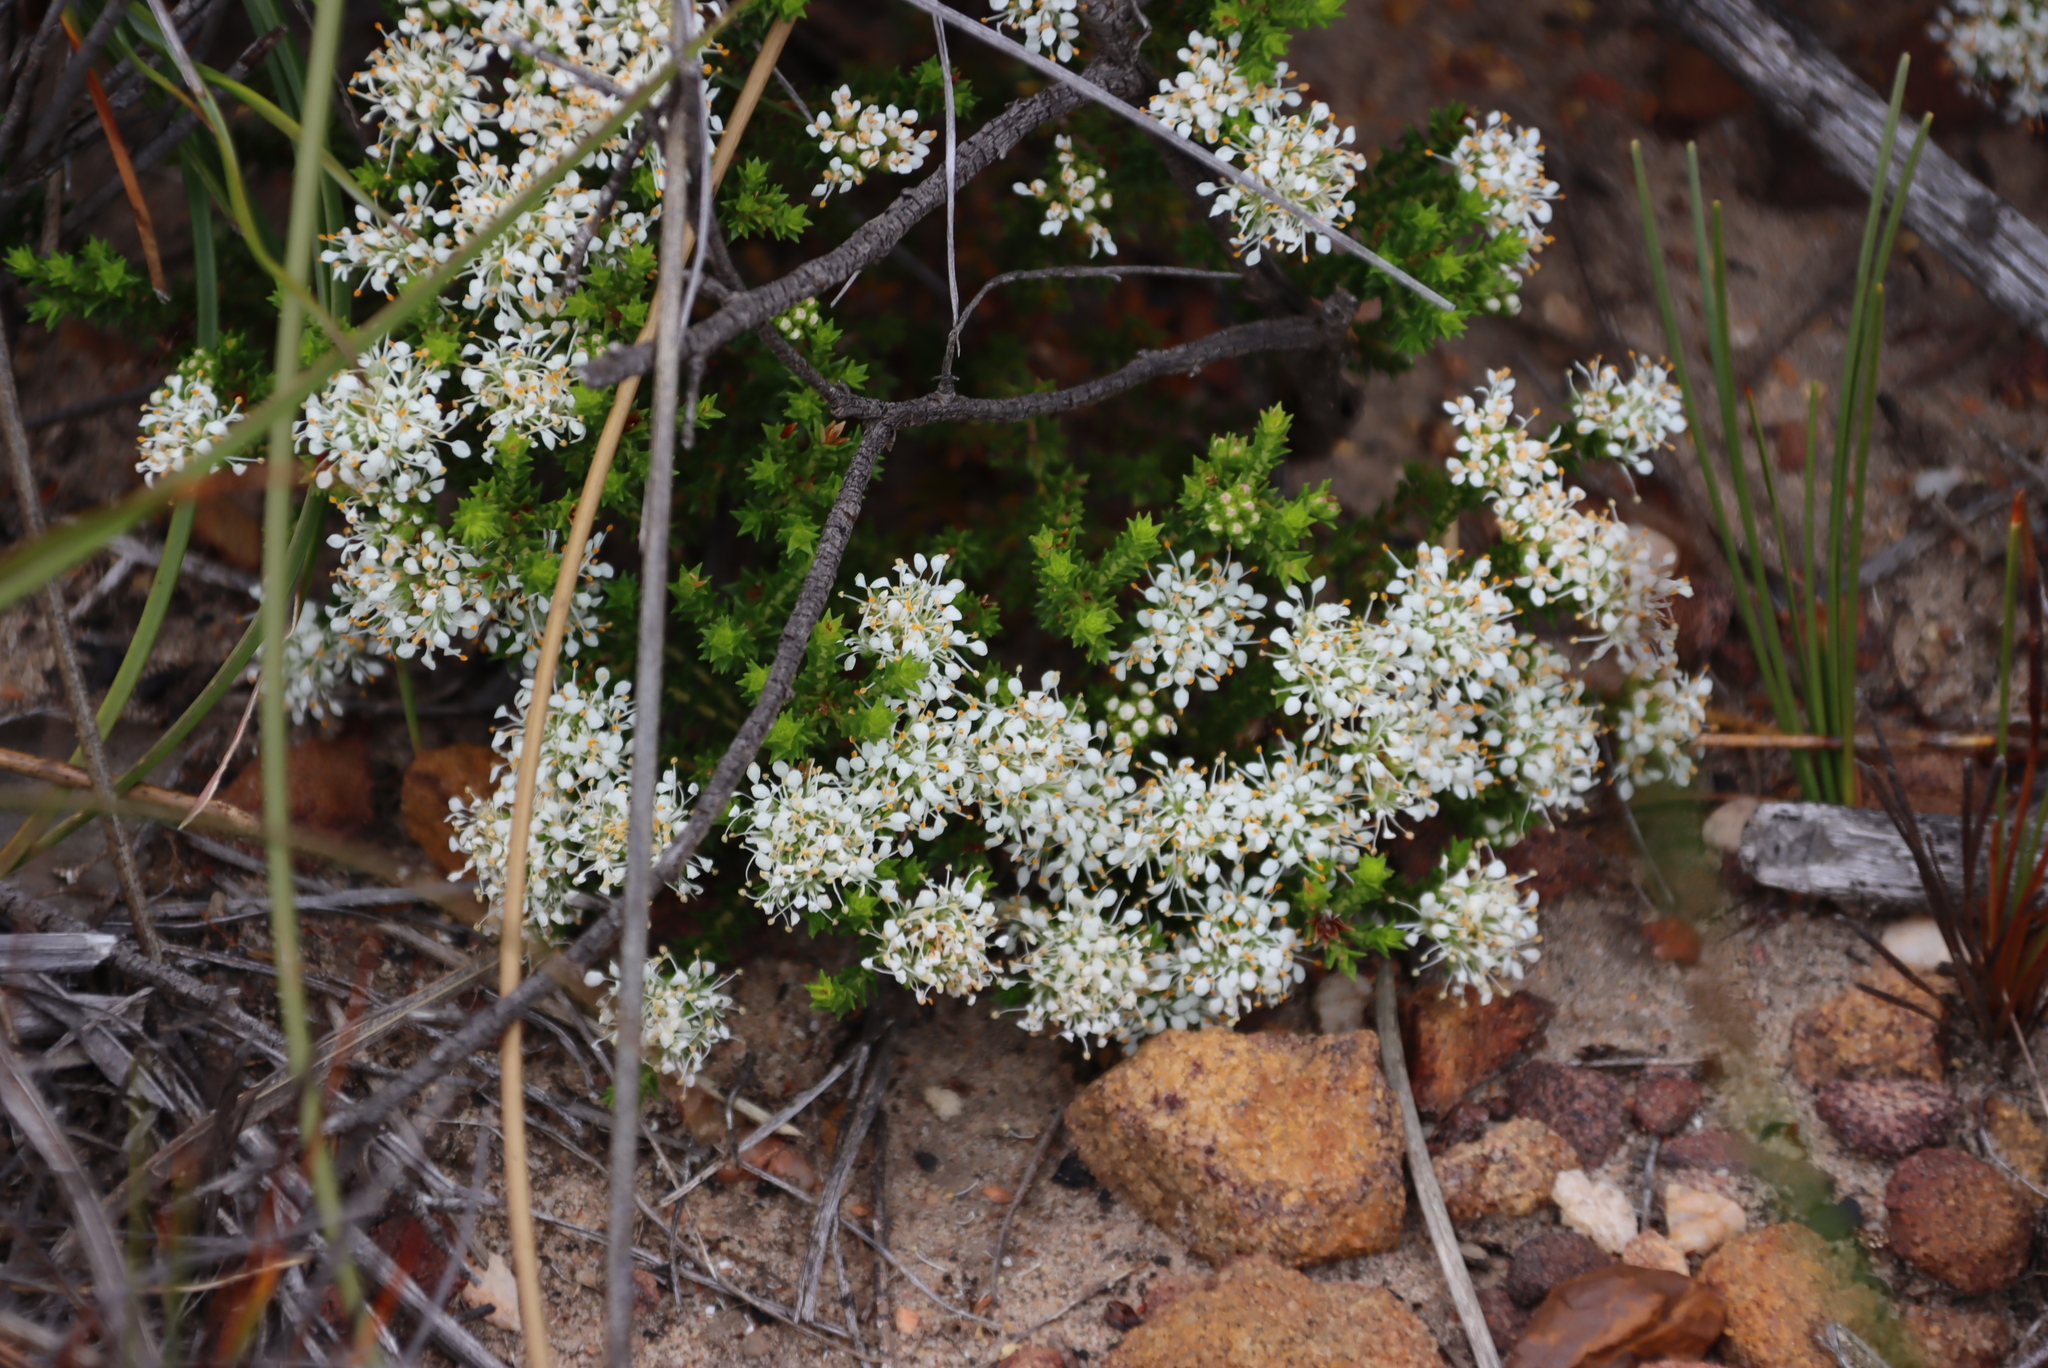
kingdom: Plantae
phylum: Tracheophyta
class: Magnoliopsida
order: Sapindales
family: Rutaceae
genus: Agathosma
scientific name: Agathosma imbricata
